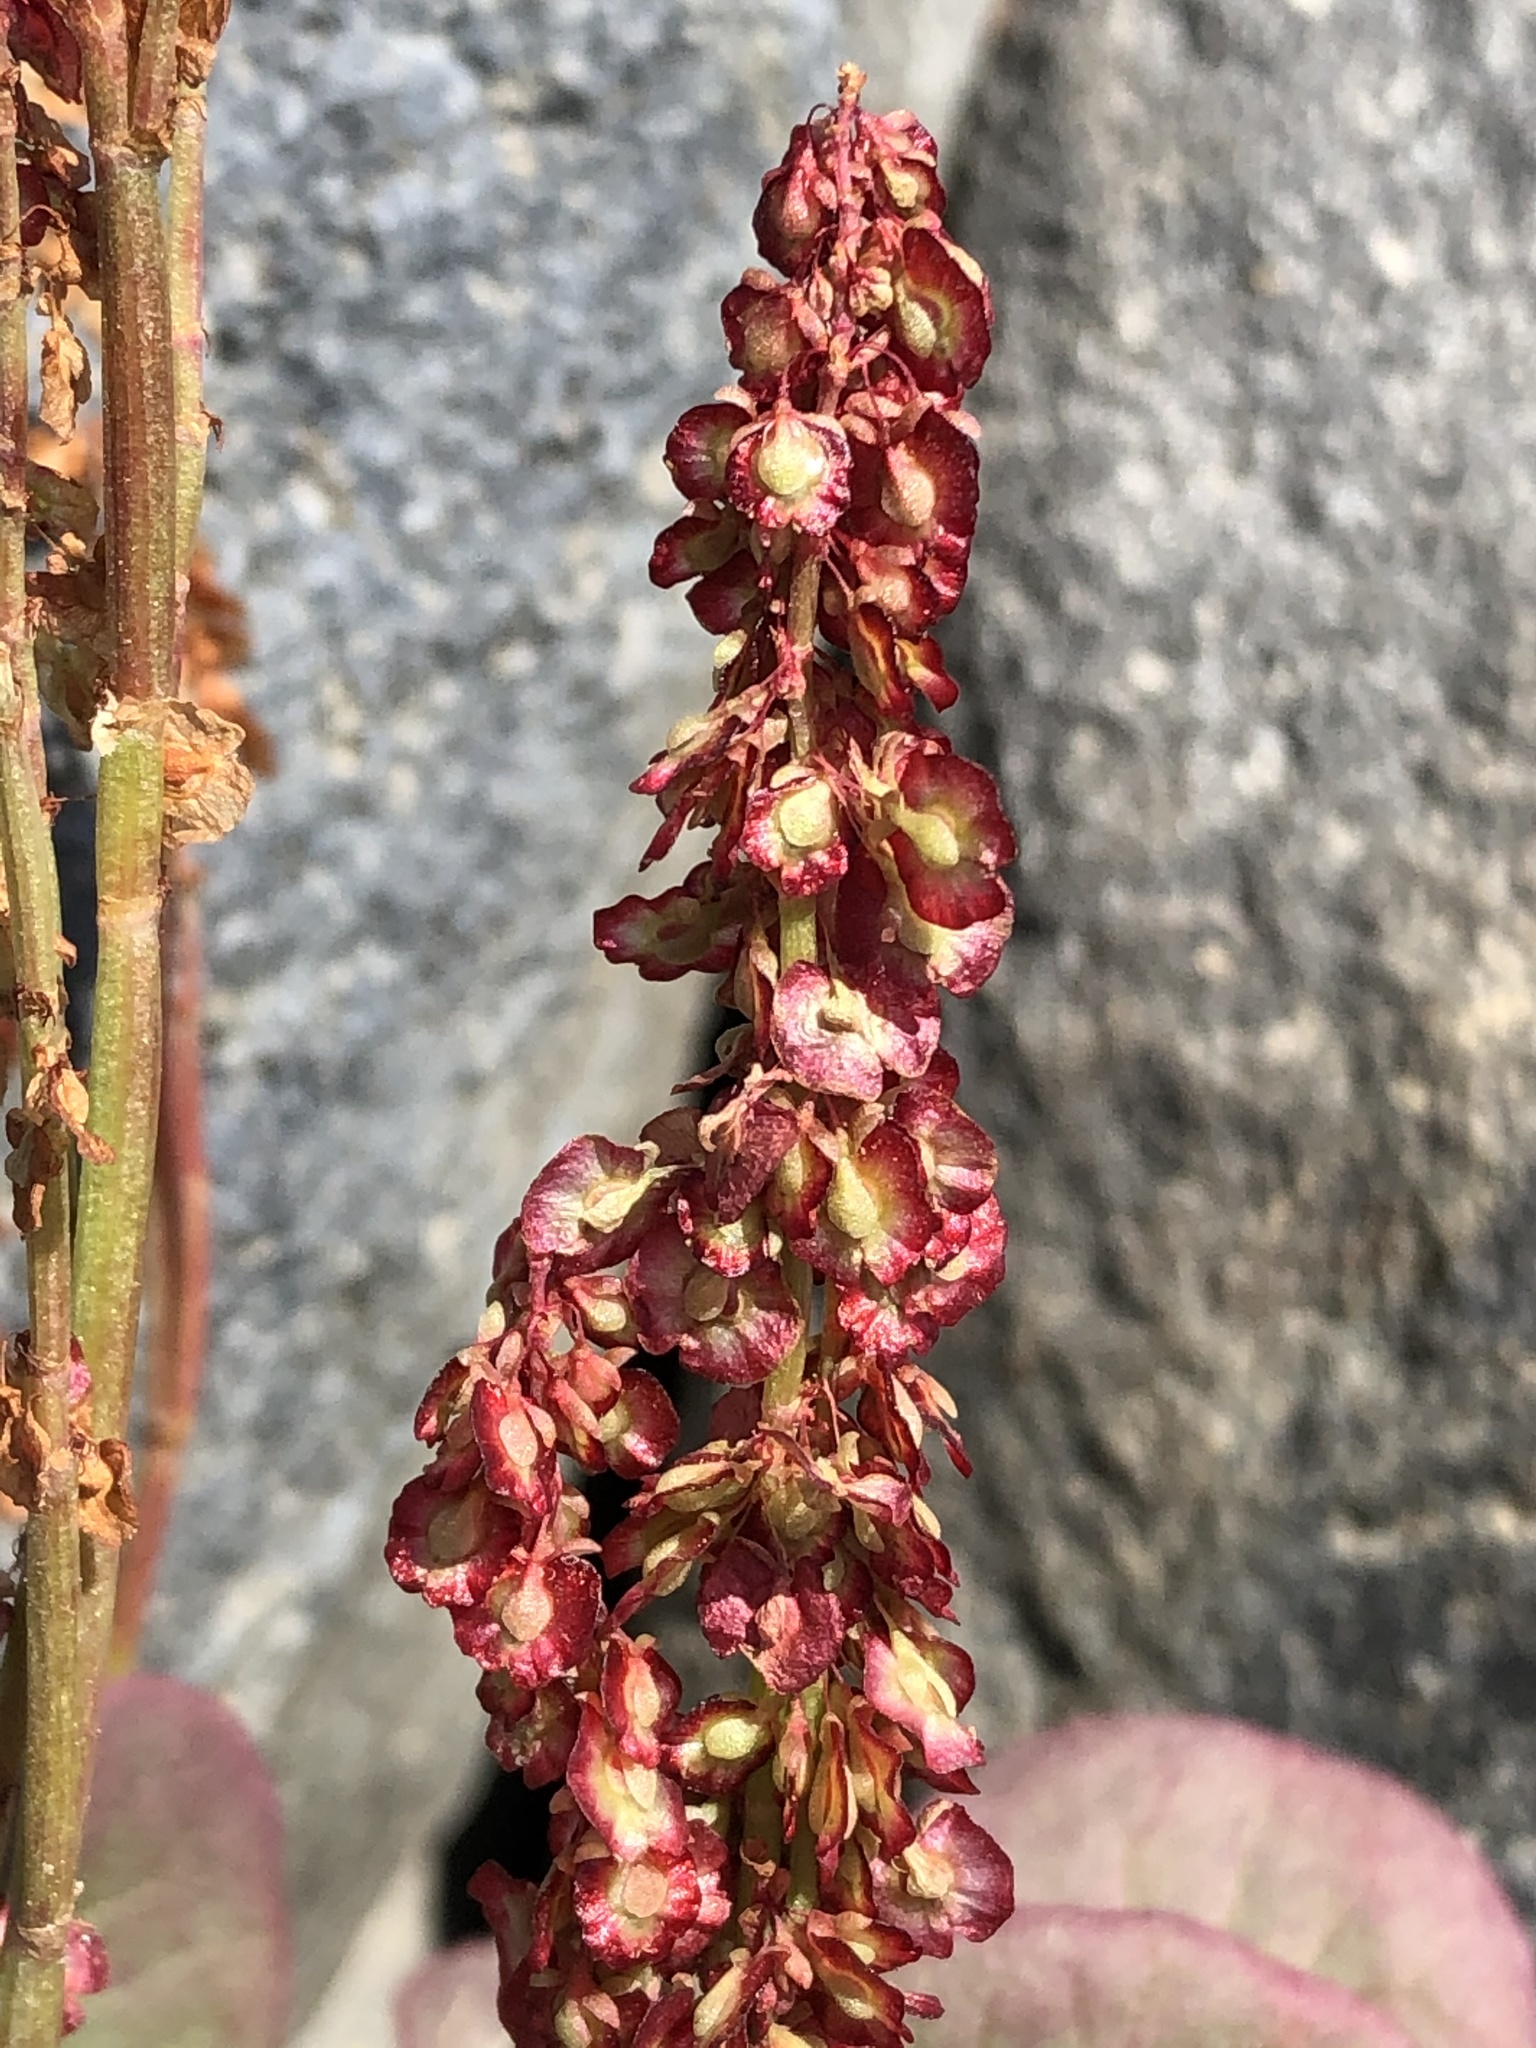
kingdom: Plantae
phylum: Tracheophyta
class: Magnoliopsida
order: Caryophyllales
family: Polygonaceae
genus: Oxyria
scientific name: Oxyria digyna
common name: Alpine mountain-sorrel
